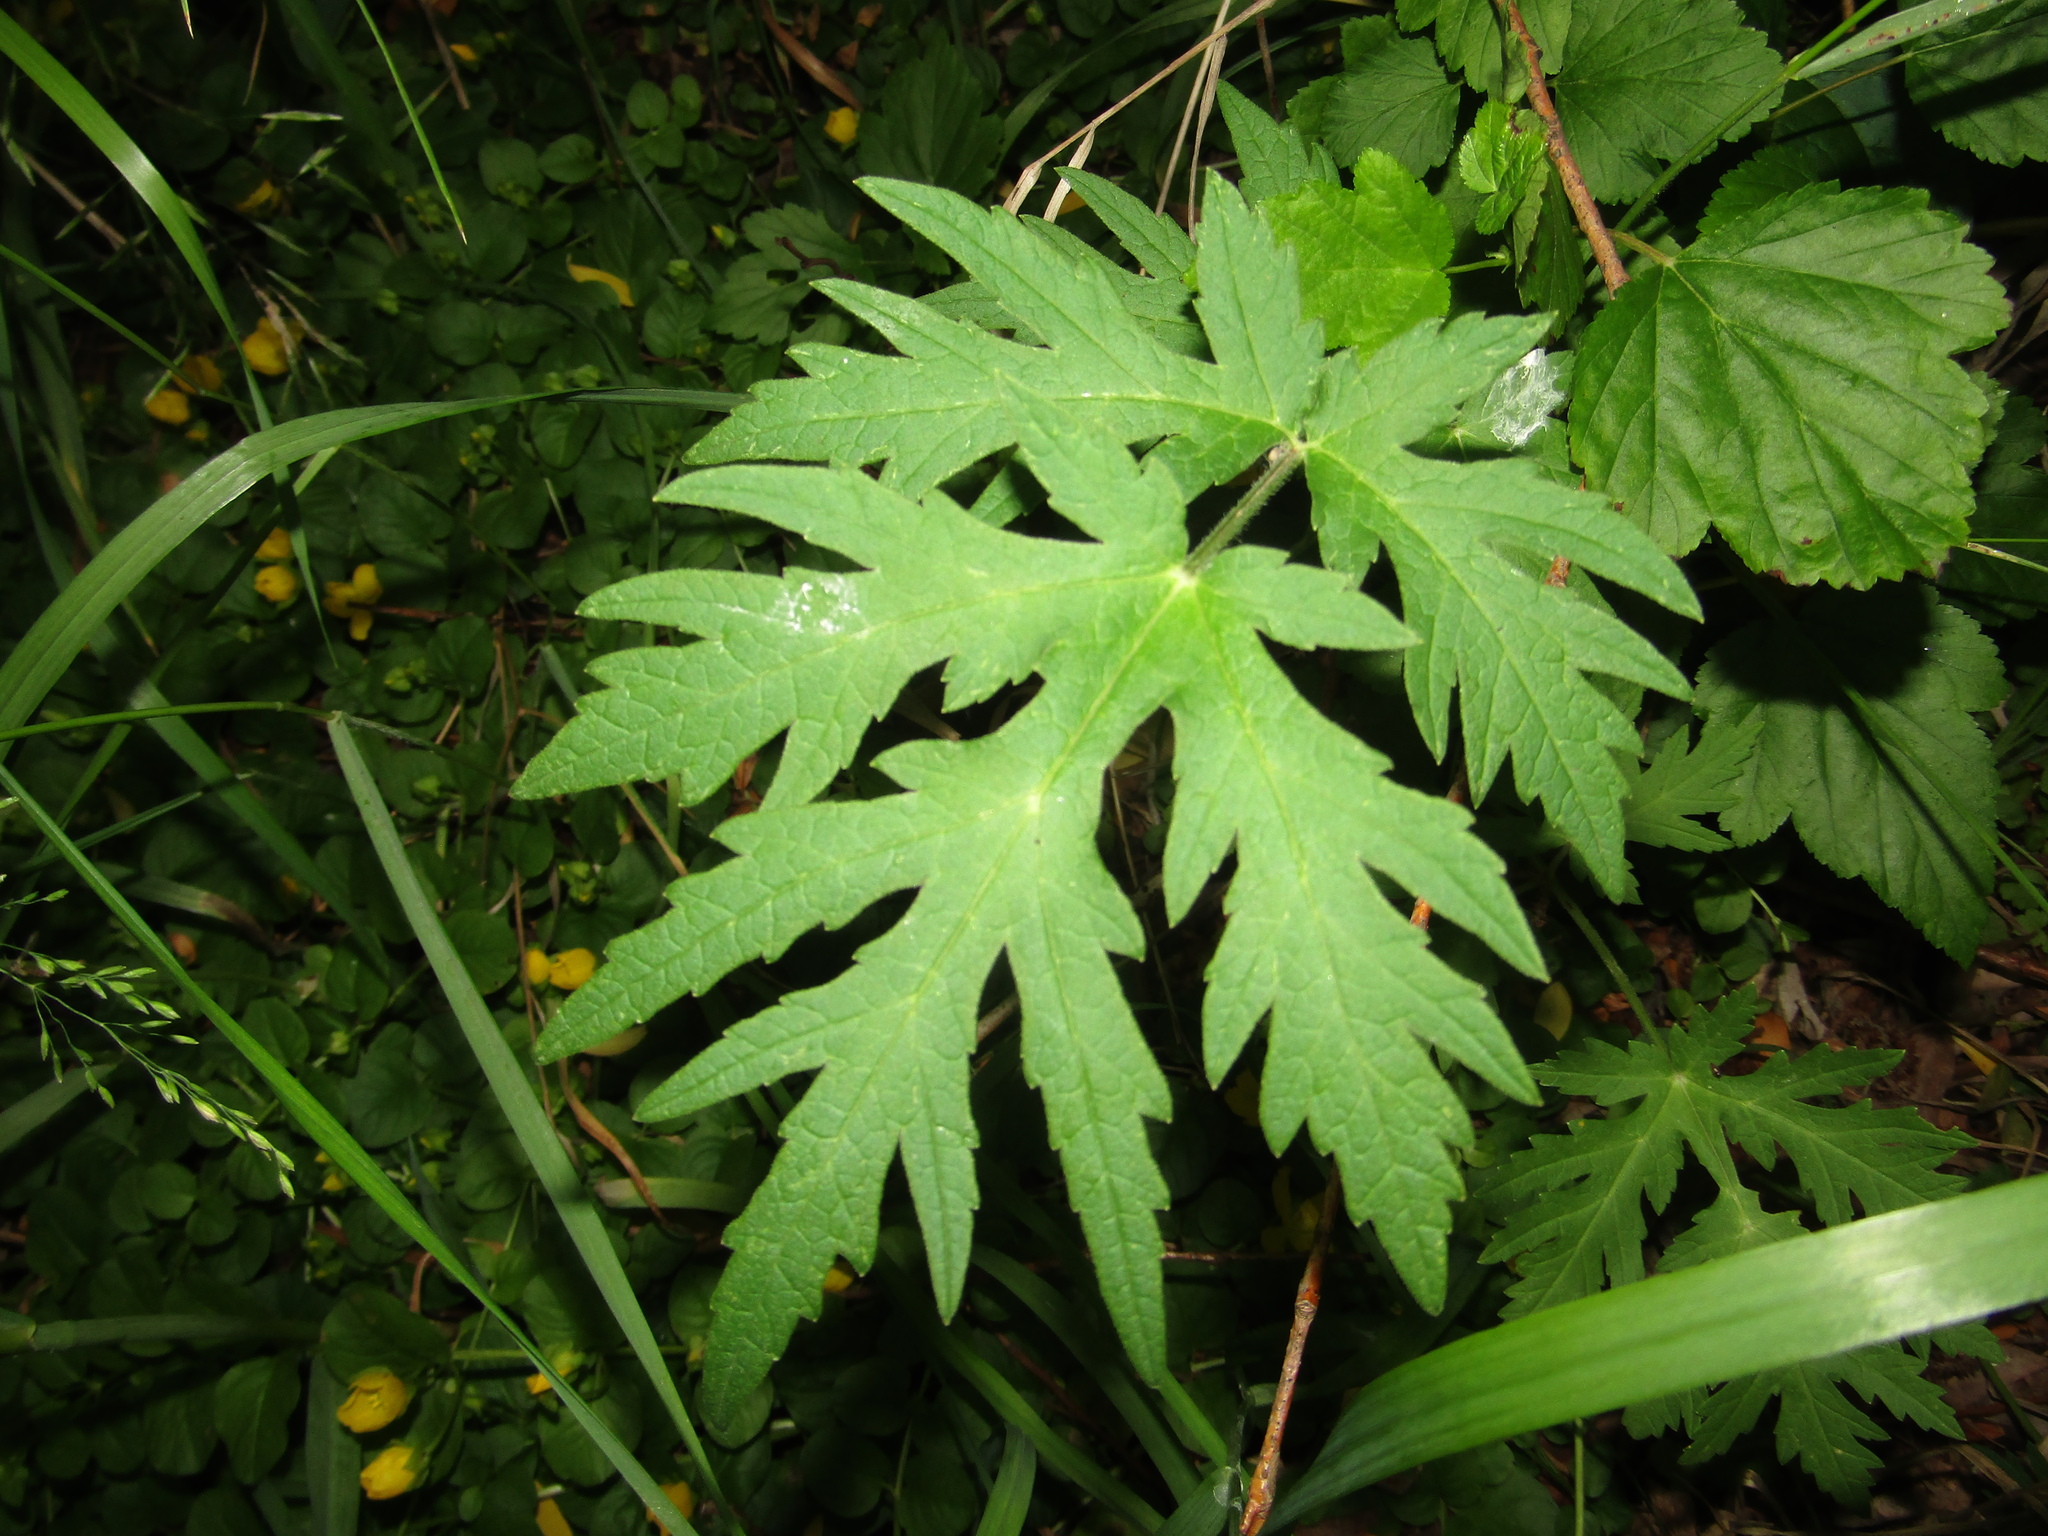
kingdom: Plantae
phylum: Tracheophyta
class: Magnoliopsida
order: Apiales
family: Apiaceae
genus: Heracleum
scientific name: Heracleum sphondylium
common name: Hogweed
